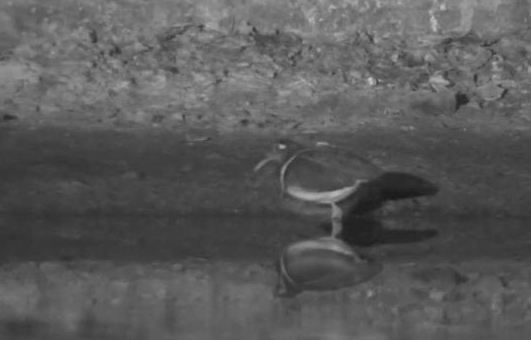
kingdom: Animalia
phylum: Chordata
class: Aves
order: Charadriiformes
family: Rostratulidae
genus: Rostratula
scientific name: Rostratula benghalensis
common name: Greater painted-snipe
